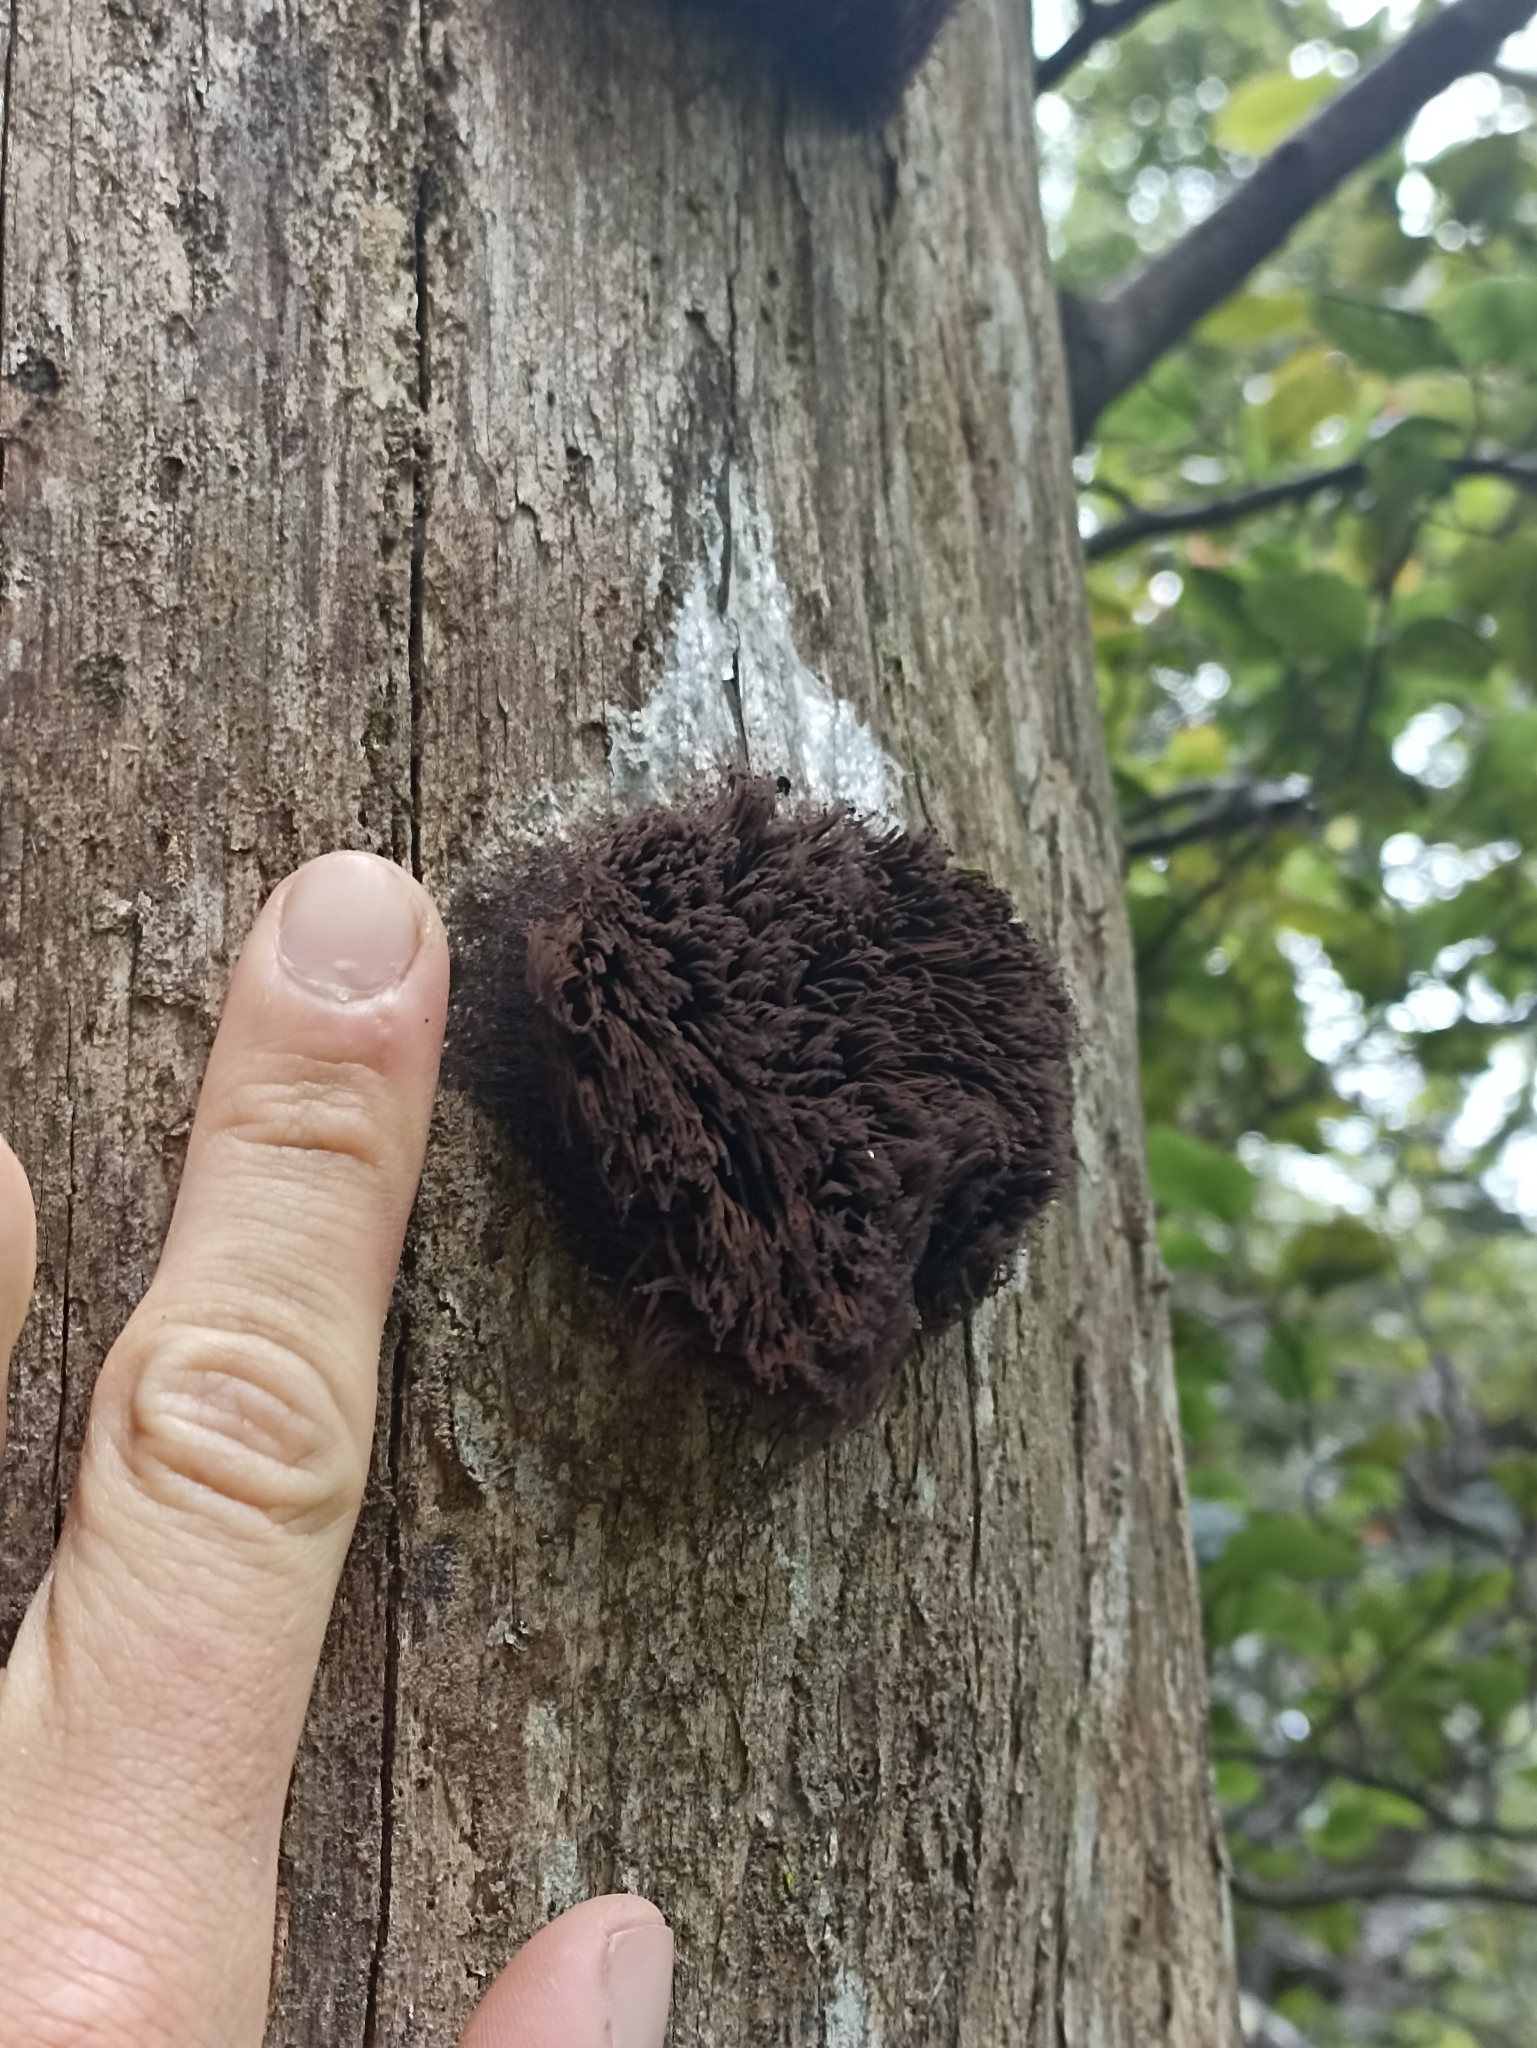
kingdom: Protozoa
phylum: Mycetozoa
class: Myxomycetes
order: Stemonitidales
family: Stemonitidaceae
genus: Stemonitis
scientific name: Stemonitis splendens
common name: Chocolate tube slime
